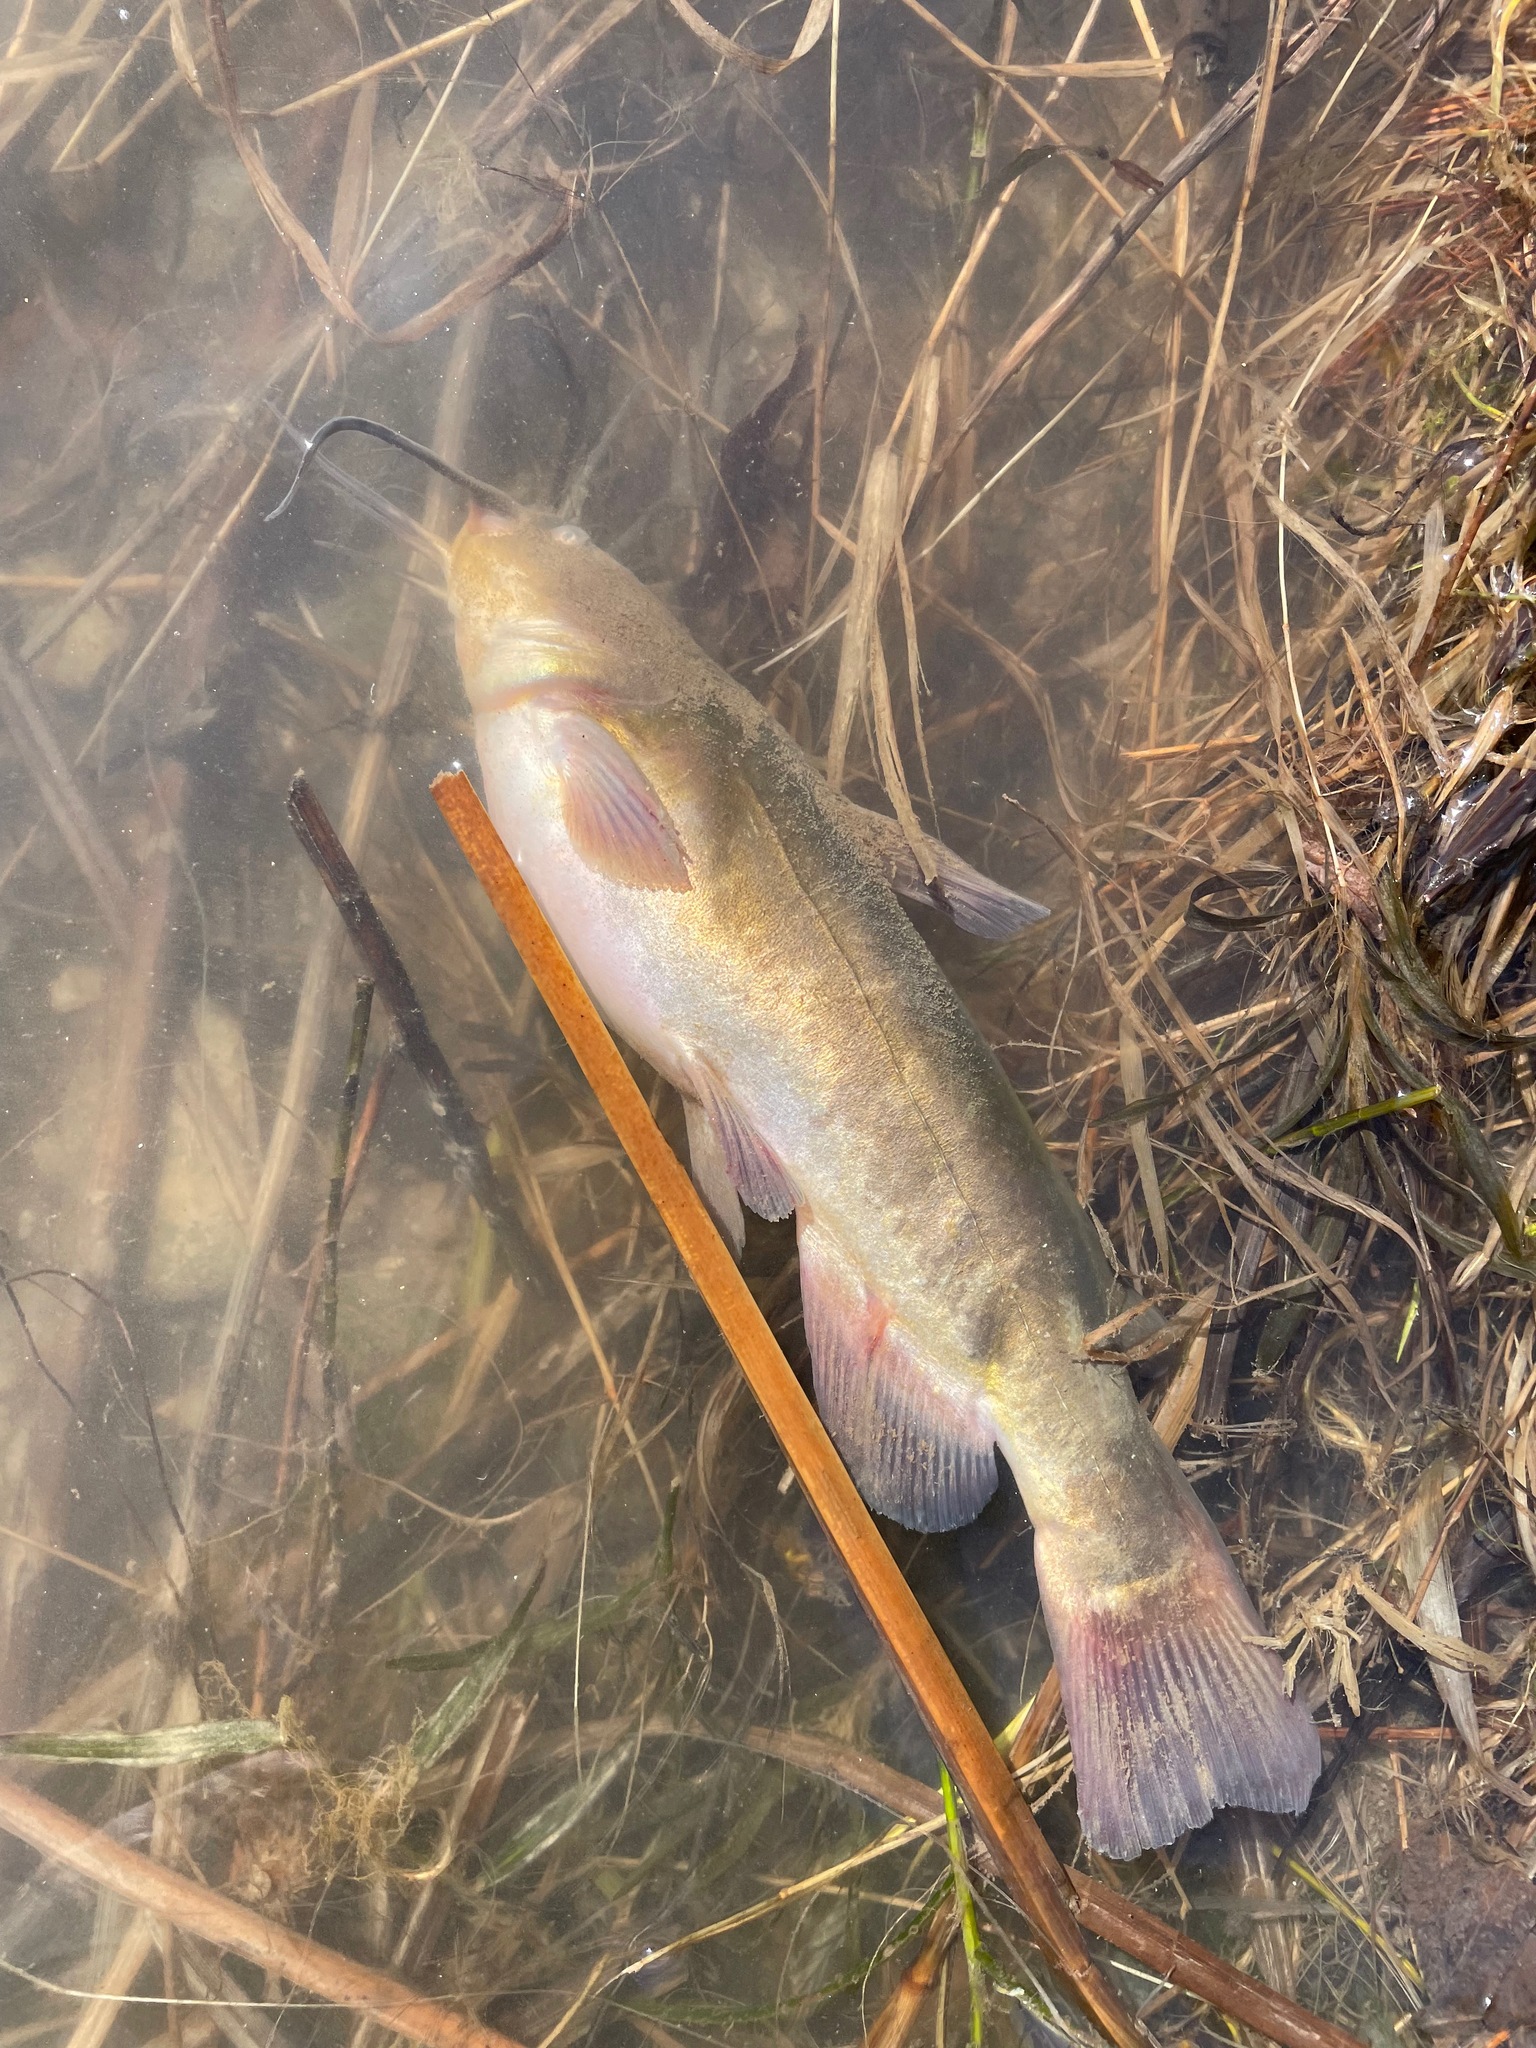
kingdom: Animalia
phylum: Chordata
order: Siluriformes
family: Ictaluridae
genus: Ameiurus
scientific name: Ameiurus nebulosus
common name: Brown bullhead
